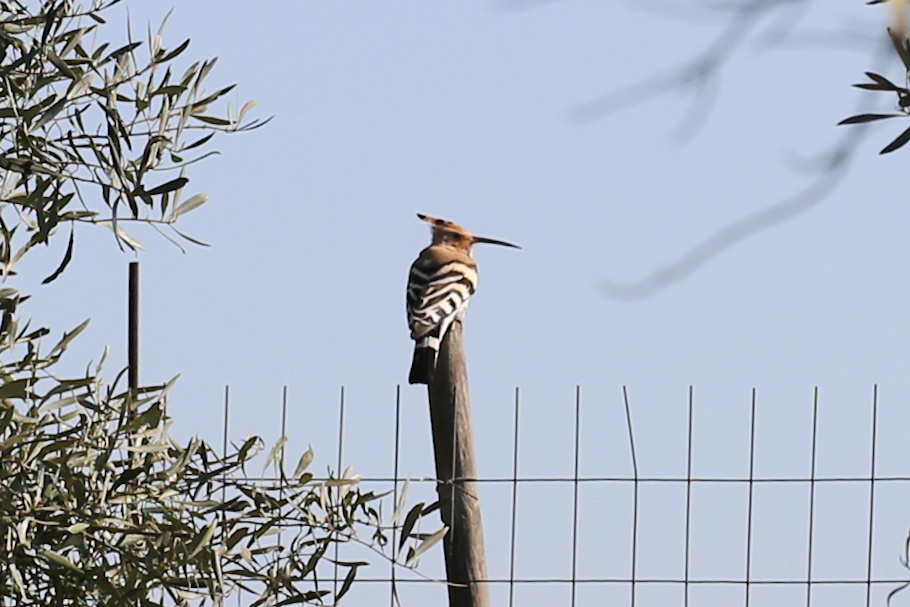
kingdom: Animalia
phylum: Chordata
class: Aves
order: Bucerotiformes
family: Upupidae
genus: Upupa
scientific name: Upupa epops
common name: Eurasian hoopoe
